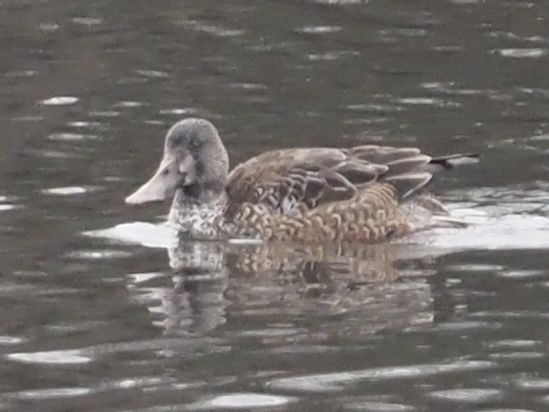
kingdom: Animalia
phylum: Chordata
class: Aves
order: Anseriformes
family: Anatidae
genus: Spatula
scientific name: Spatula clypeata
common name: Northern shoveler
